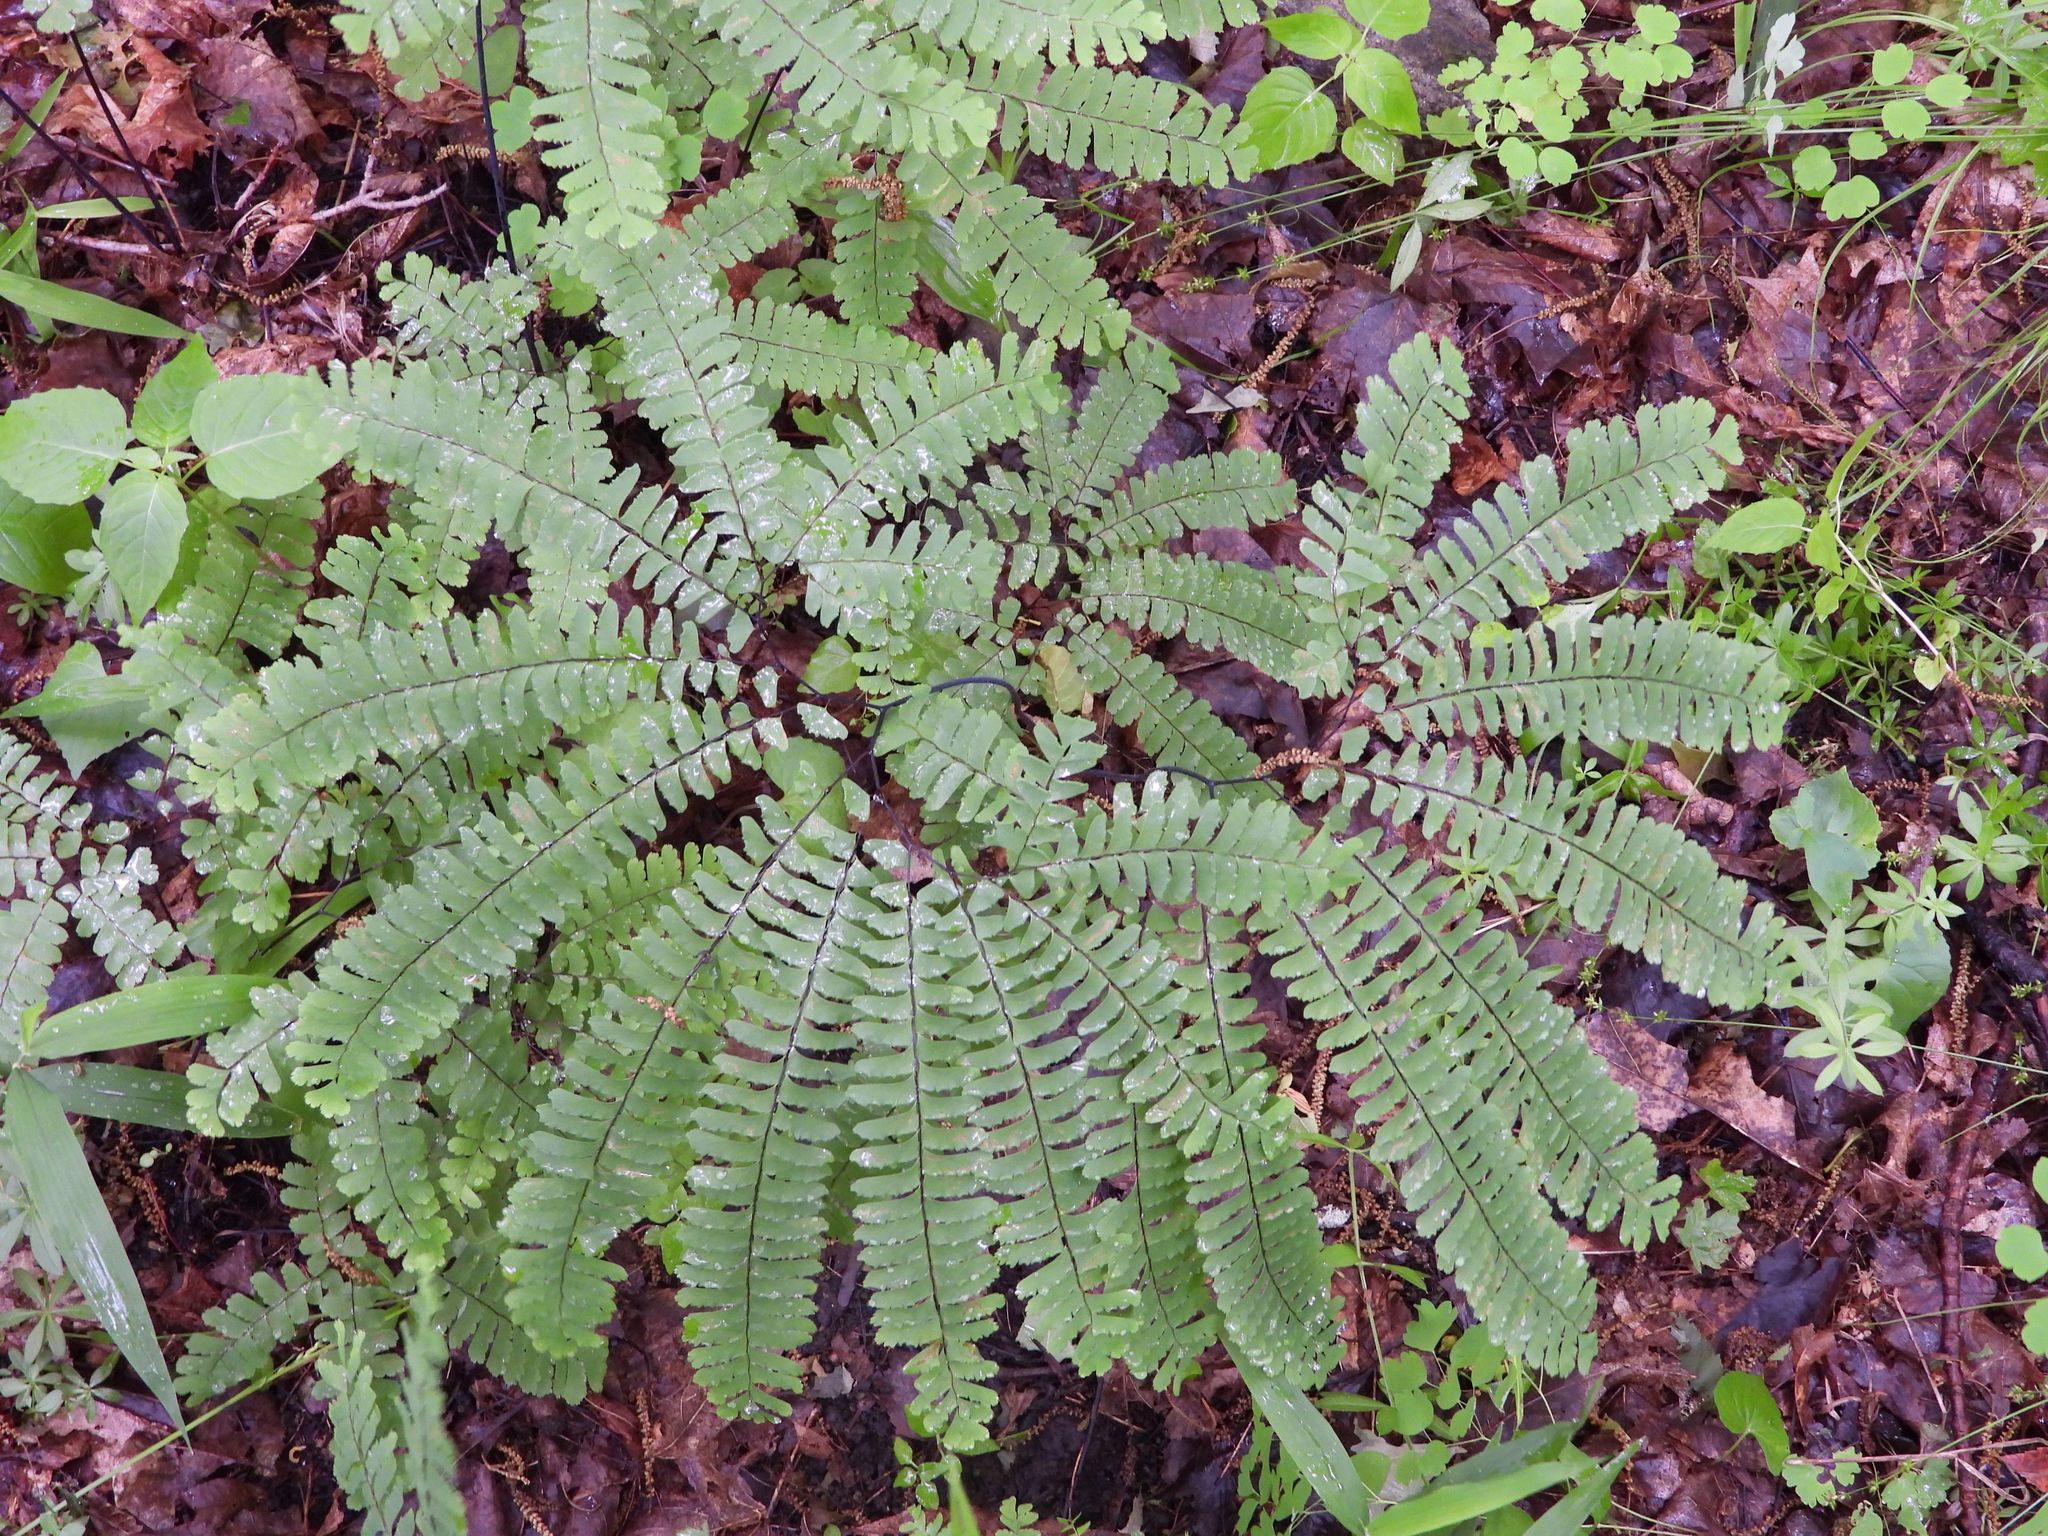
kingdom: Plantae
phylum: Tracheophyta
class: Polypodiopsida
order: Polypodiales
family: Pteridaceae
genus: Adiantum
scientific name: Adiantum pedatum
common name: Five-finger fern
